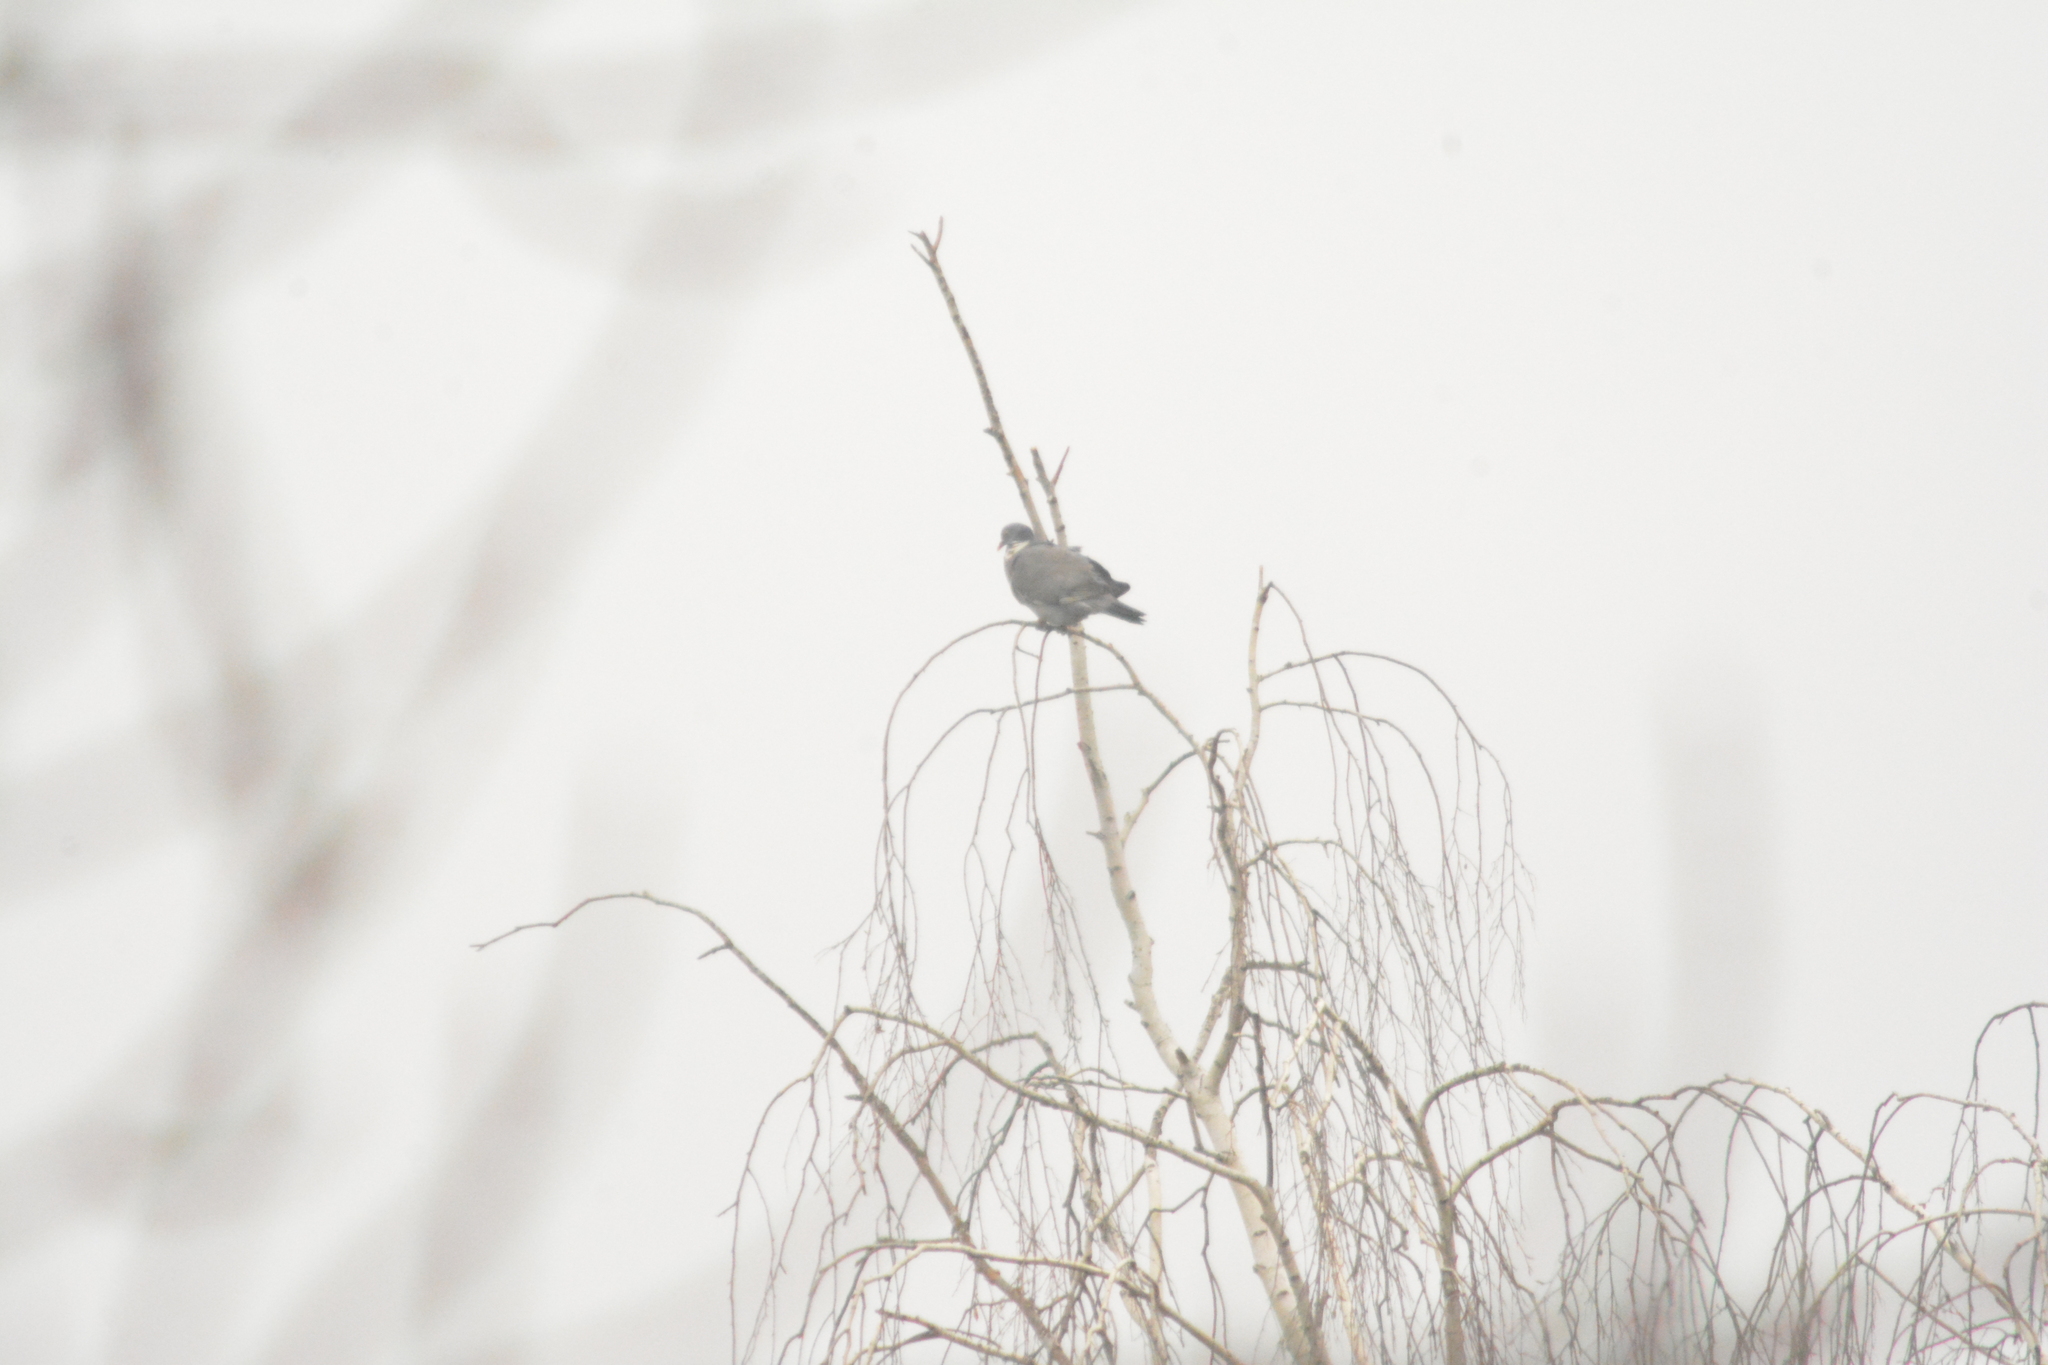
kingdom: Animalia
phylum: Chordata
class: Aves
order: Columbiformes
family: Columbidae
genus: Columba
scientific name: Columba palumbus
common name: Common wood pigeon
